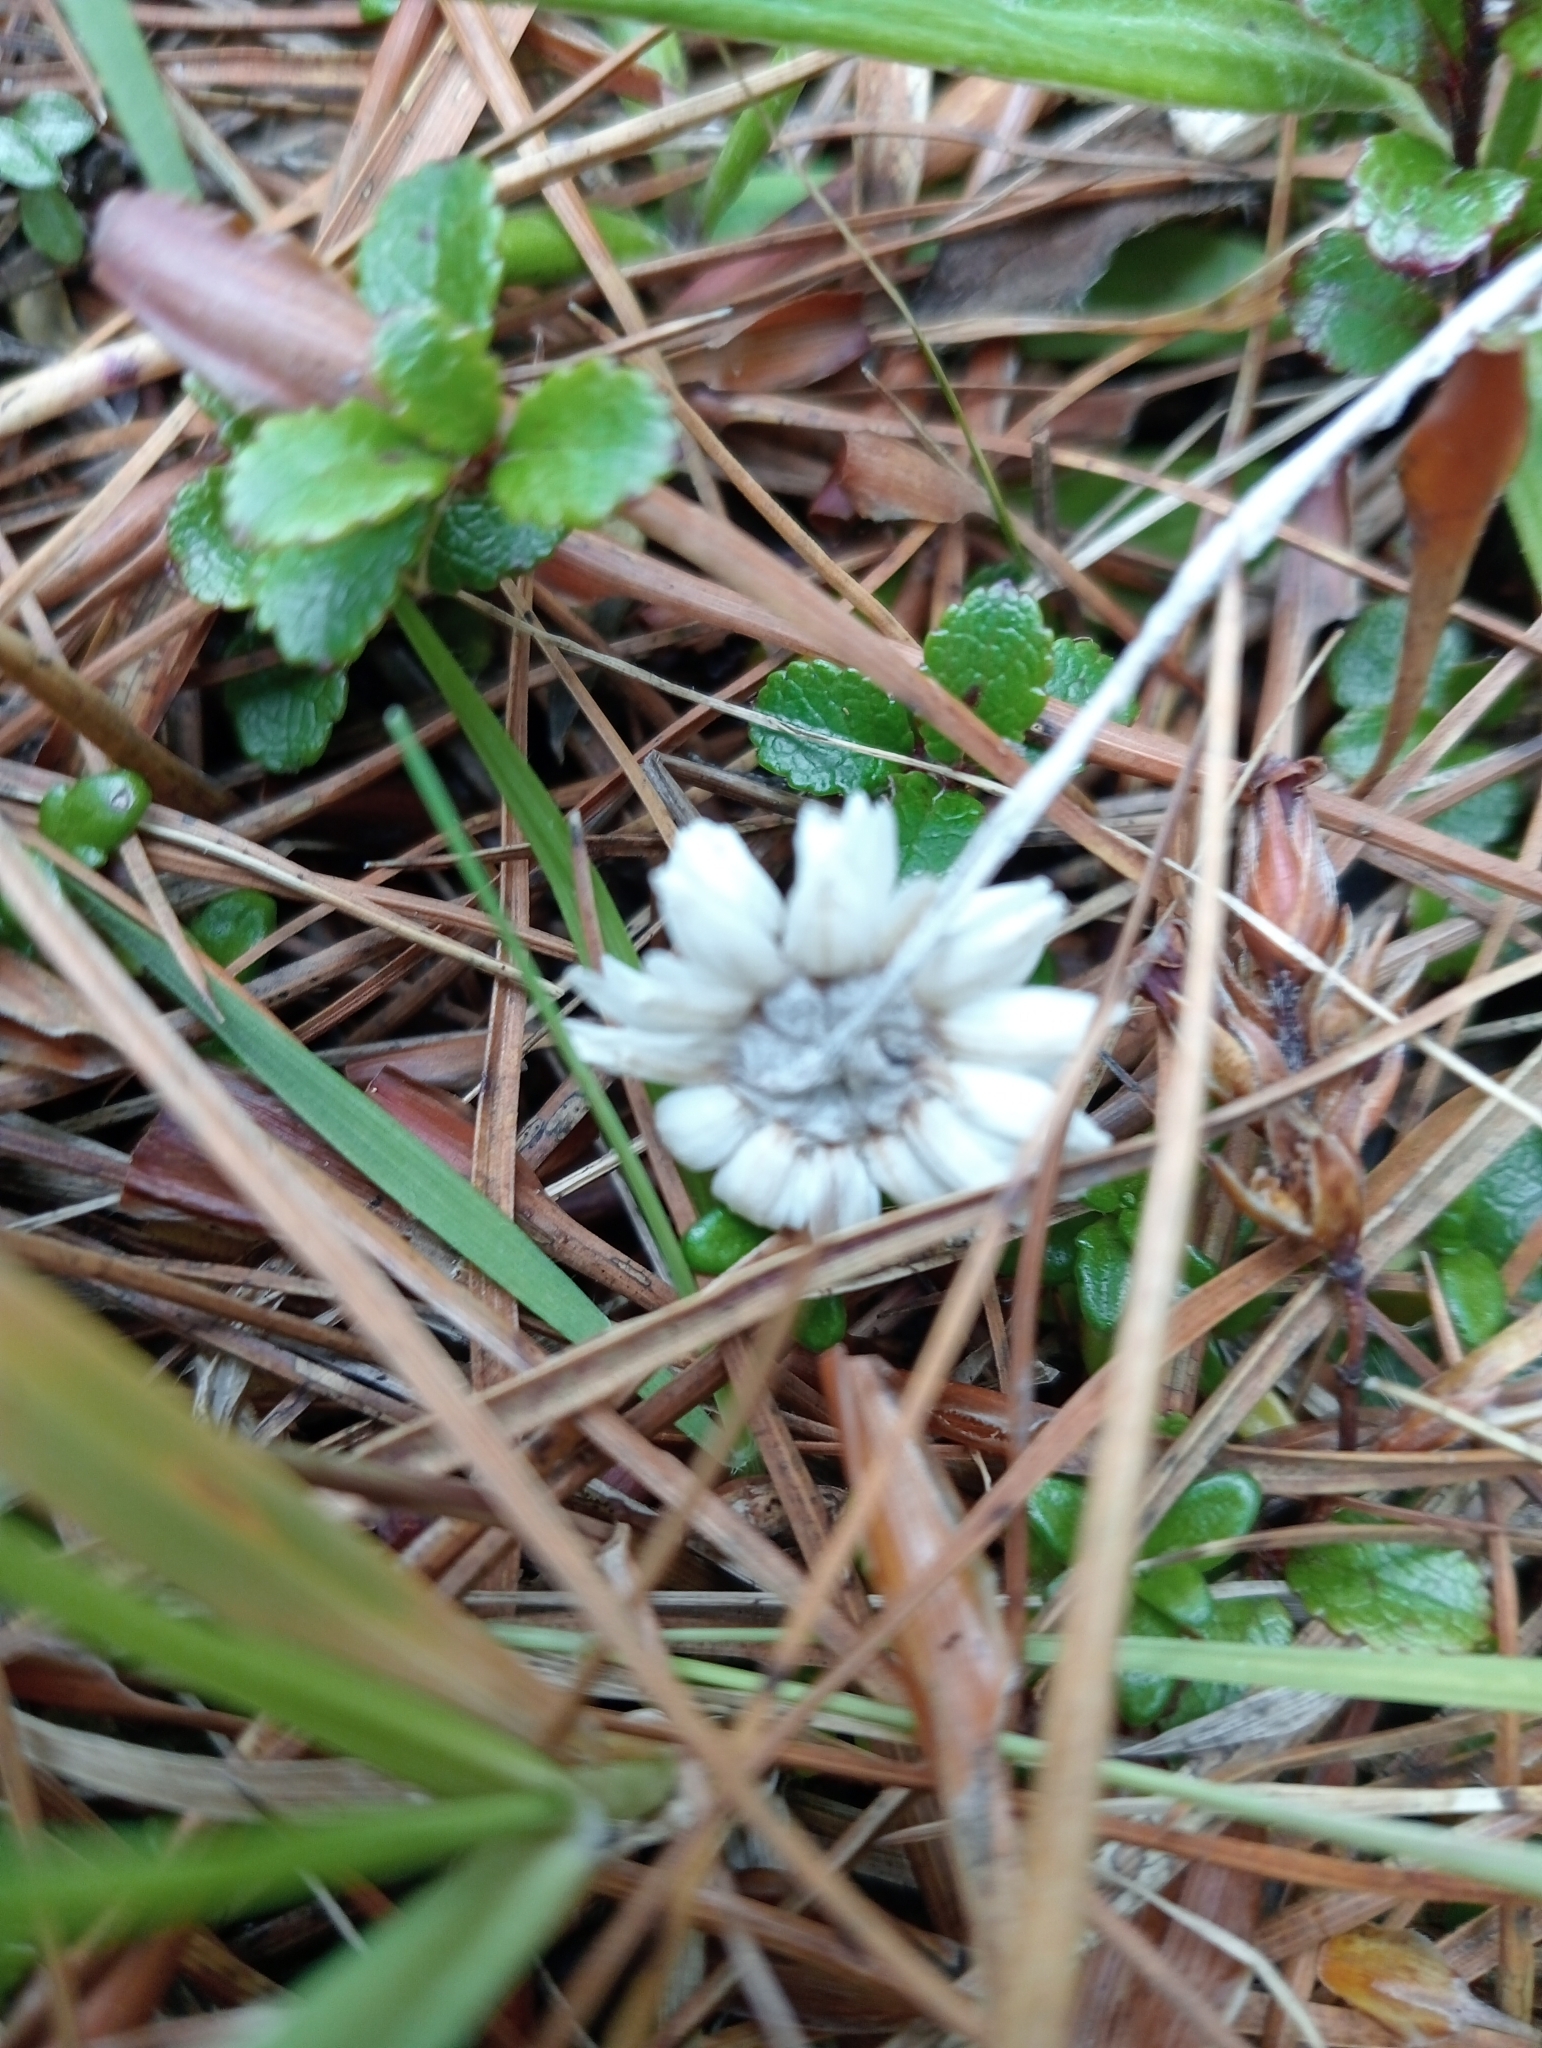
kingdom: Plantae
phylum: Tracheophyta
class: Magnoliopsida
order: Asterales
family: Asteraceae
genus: Anaphalioides
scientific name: Anaphalioides bellidioides
